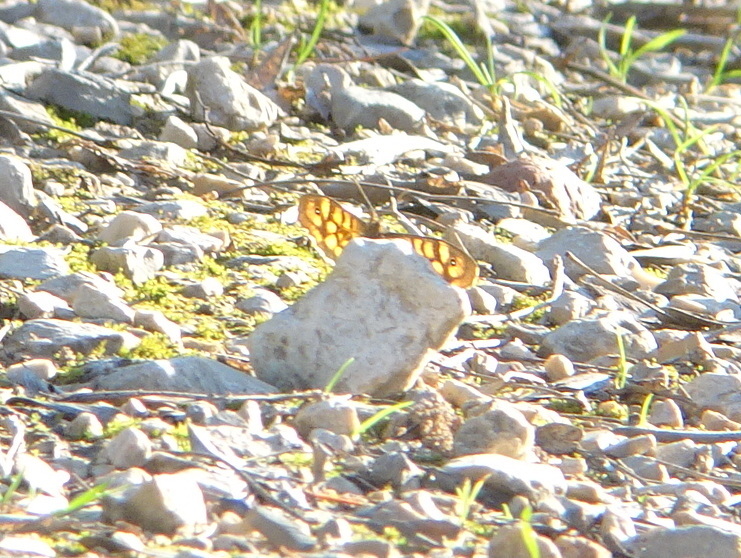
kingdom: Animalia
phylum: Arthropoda
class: Insecta
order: Lepidoptera
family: Nymphalidae
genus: Pararge
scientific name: Pararge aegeria
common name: Speckled wood
